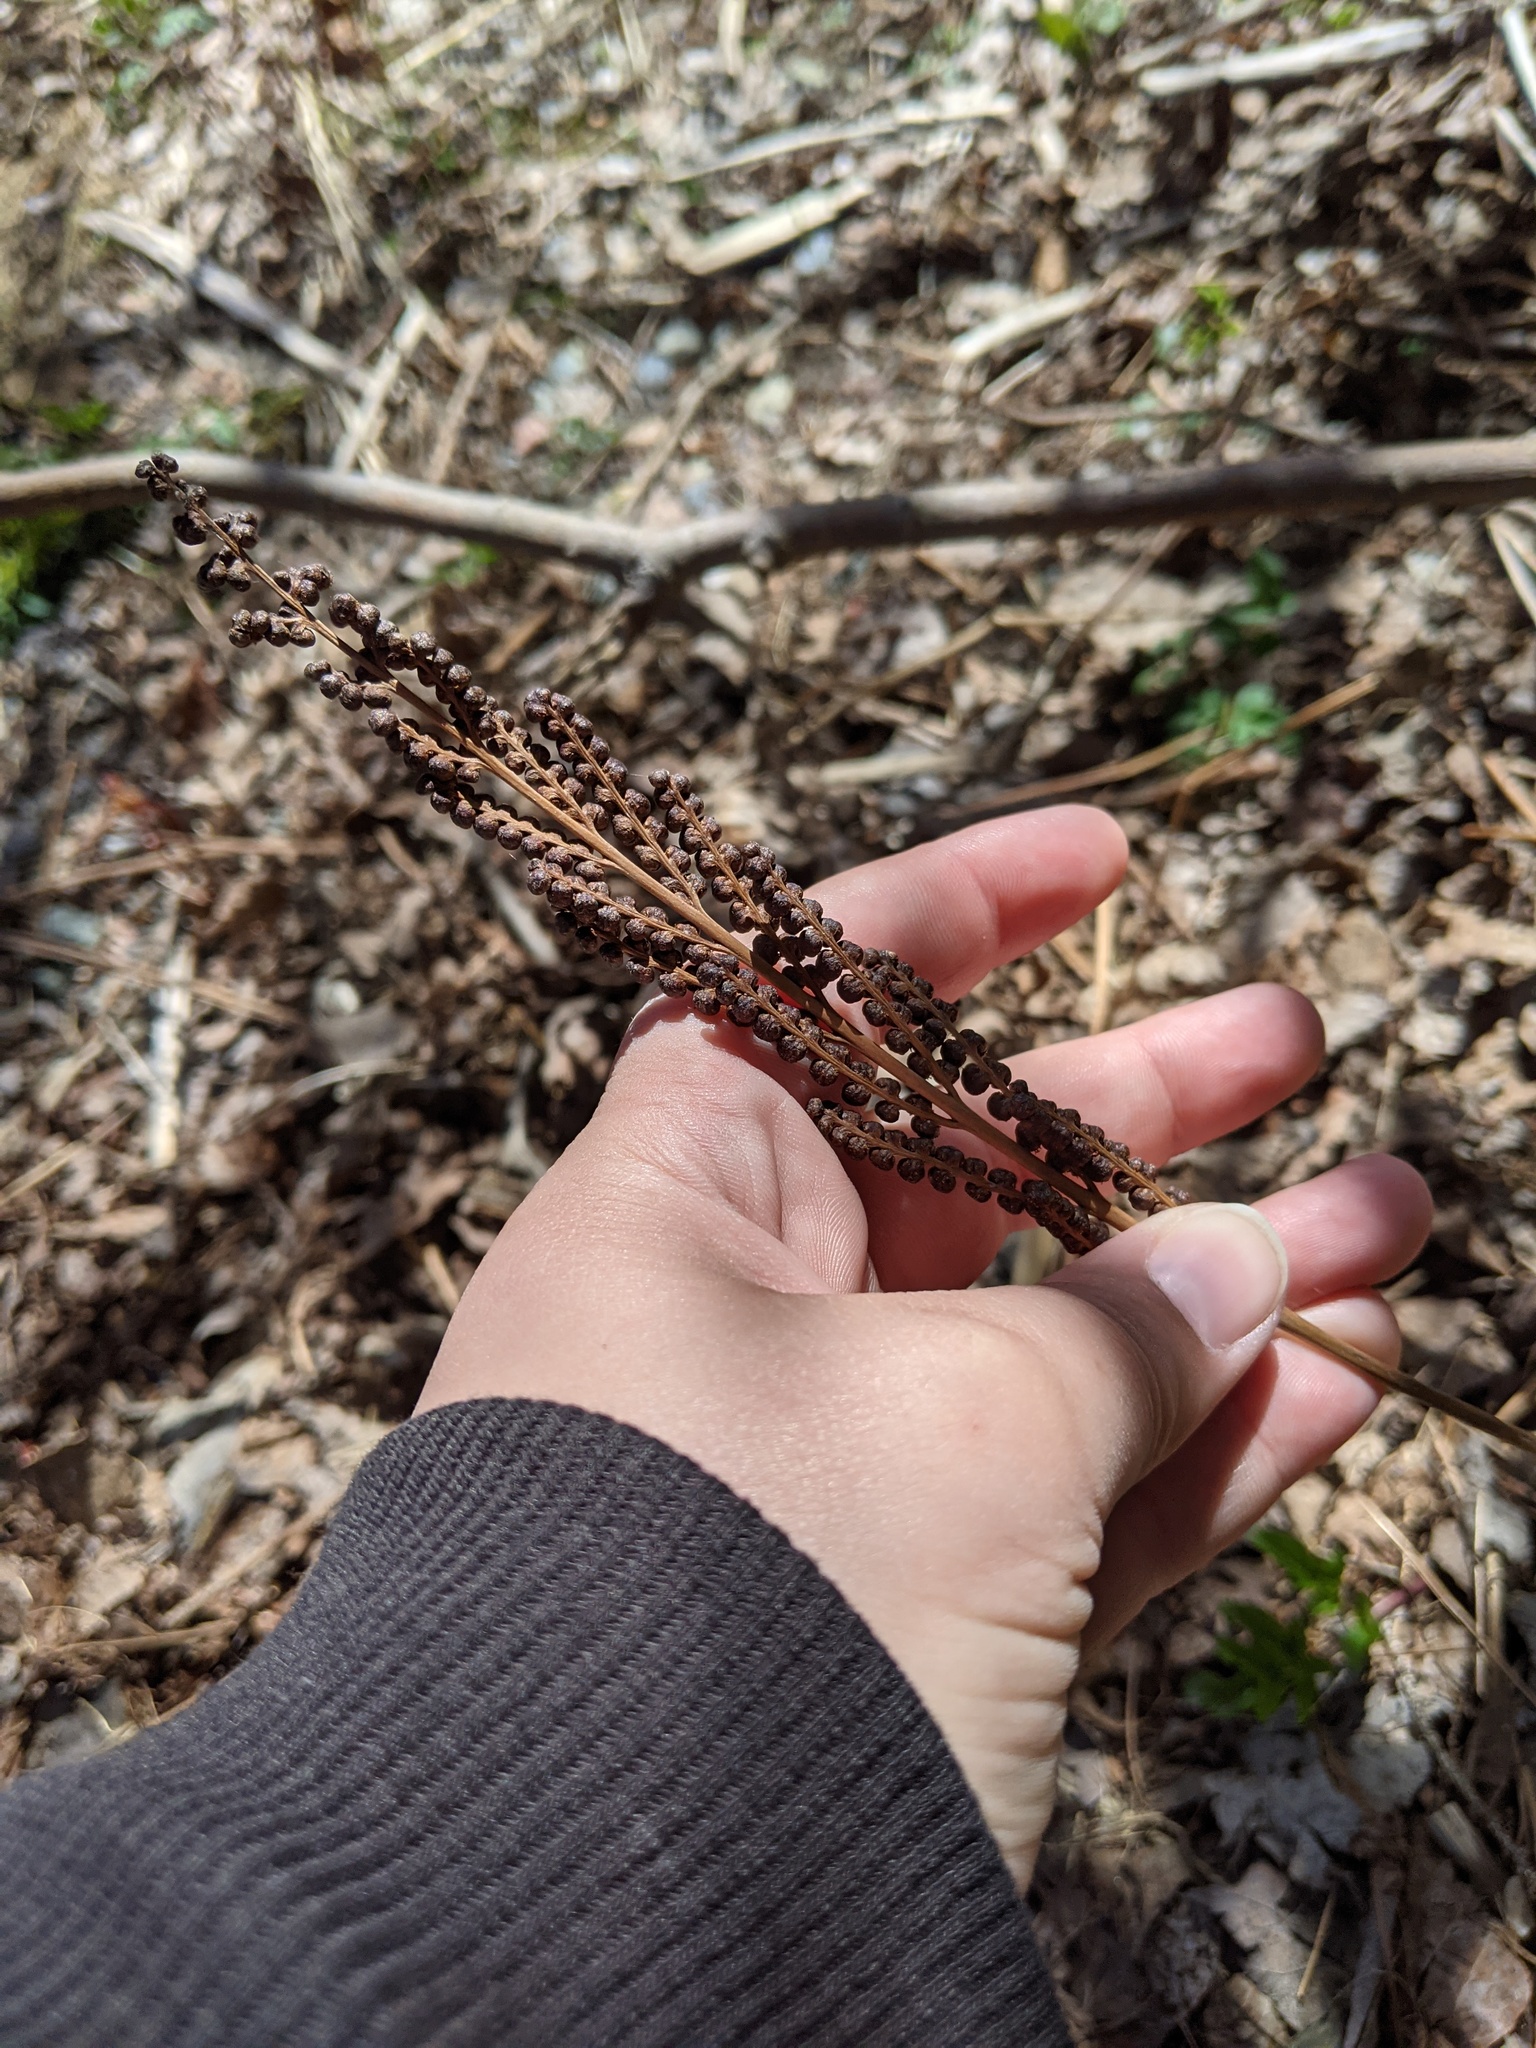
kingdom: Plantae
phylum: Tracheophyta
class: Polypodiopsida
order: Polypodiales
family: Onocleaceae
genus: Onoclea
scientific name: Onoclea sensibilis
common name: Sensitive fern
